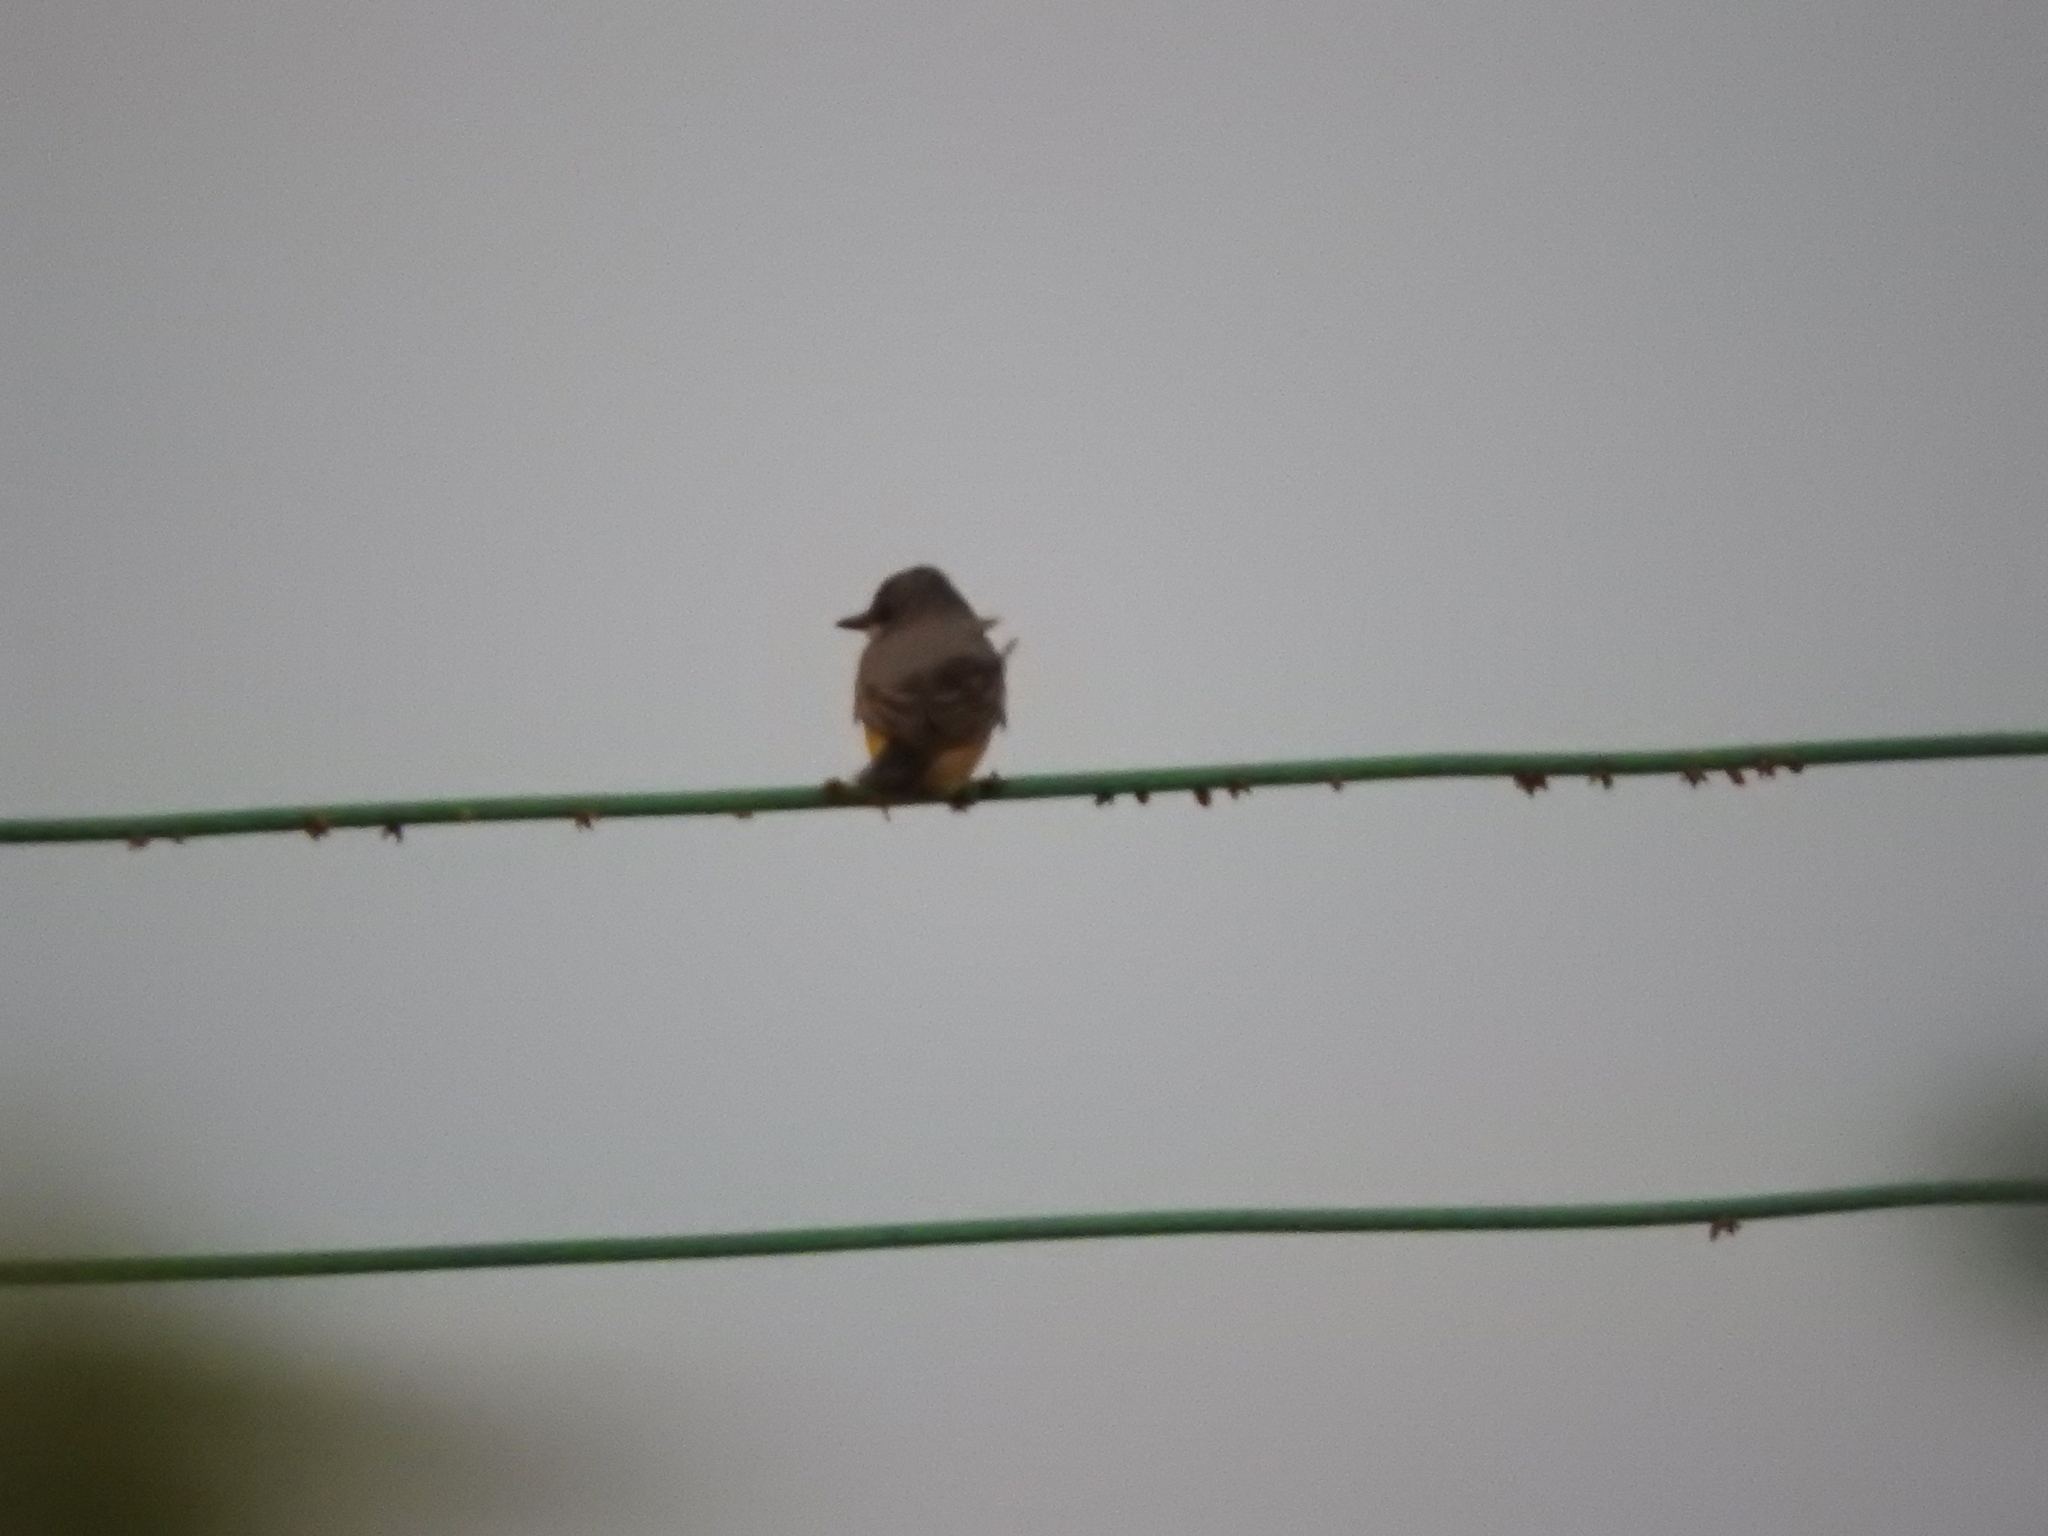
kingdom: Animalia
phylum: Chordata
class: Aves
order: Passeriformes
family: Tyrannidae
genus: Tyrannus
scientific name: Tyrannus vociferans
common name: Cassin's kingbird
